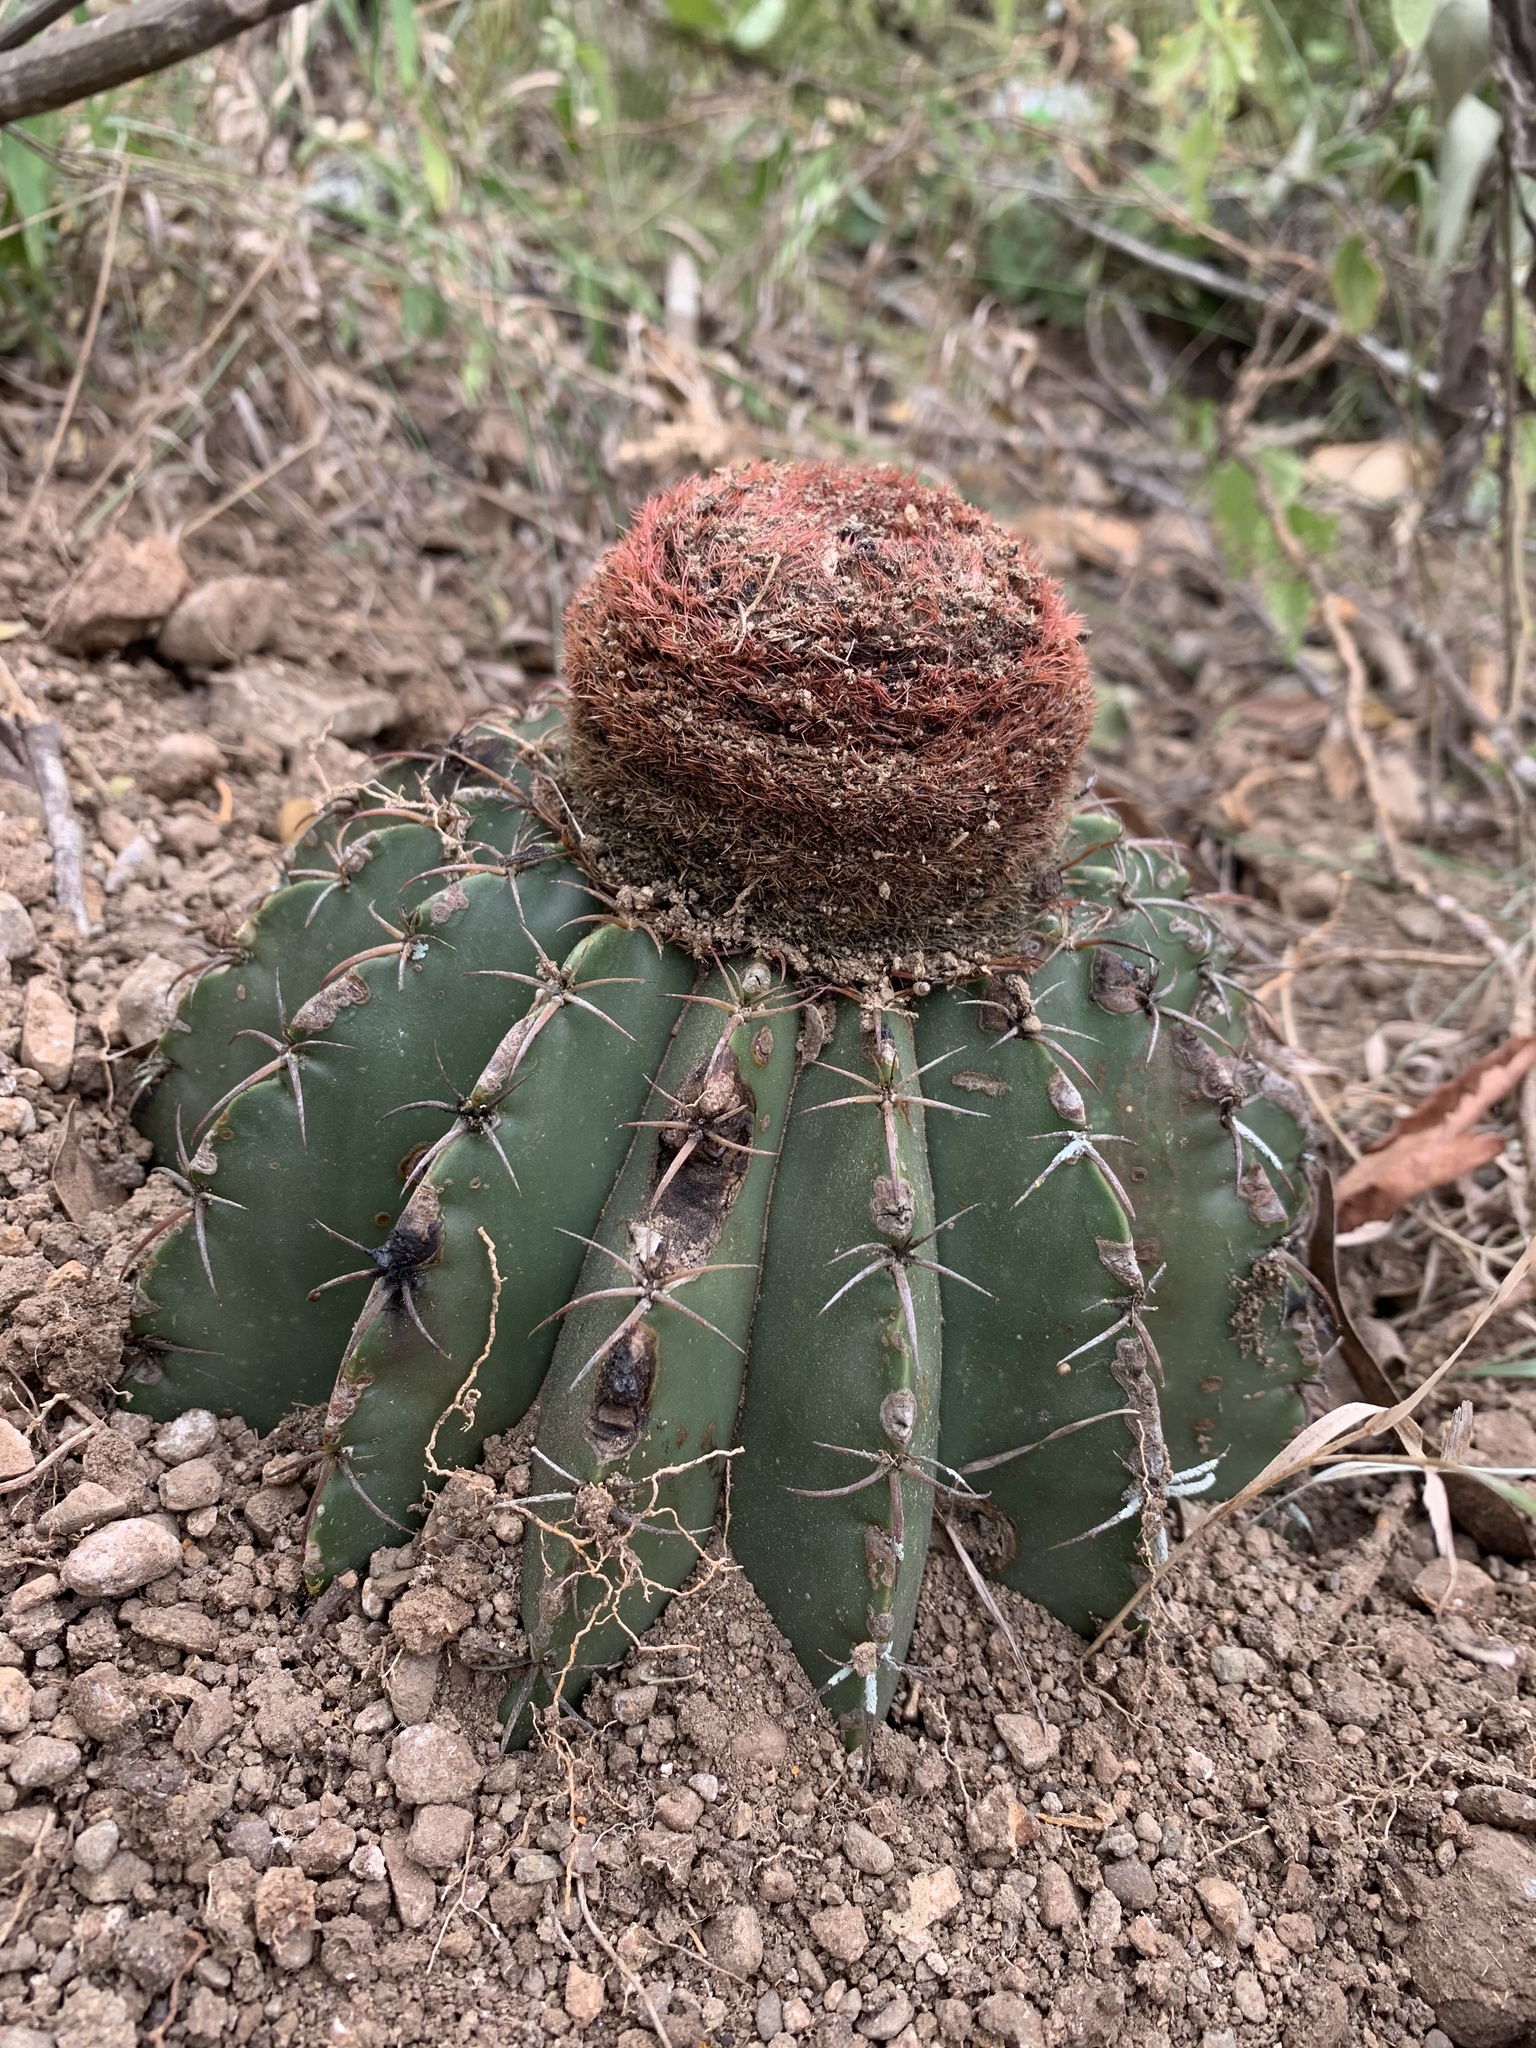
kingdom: Plantae
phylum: Tracheophyta
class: Magnoliopsida
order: Caryophyllales
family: Cactaceae
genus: Melocactus
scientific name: Melocactus bellavistensis
